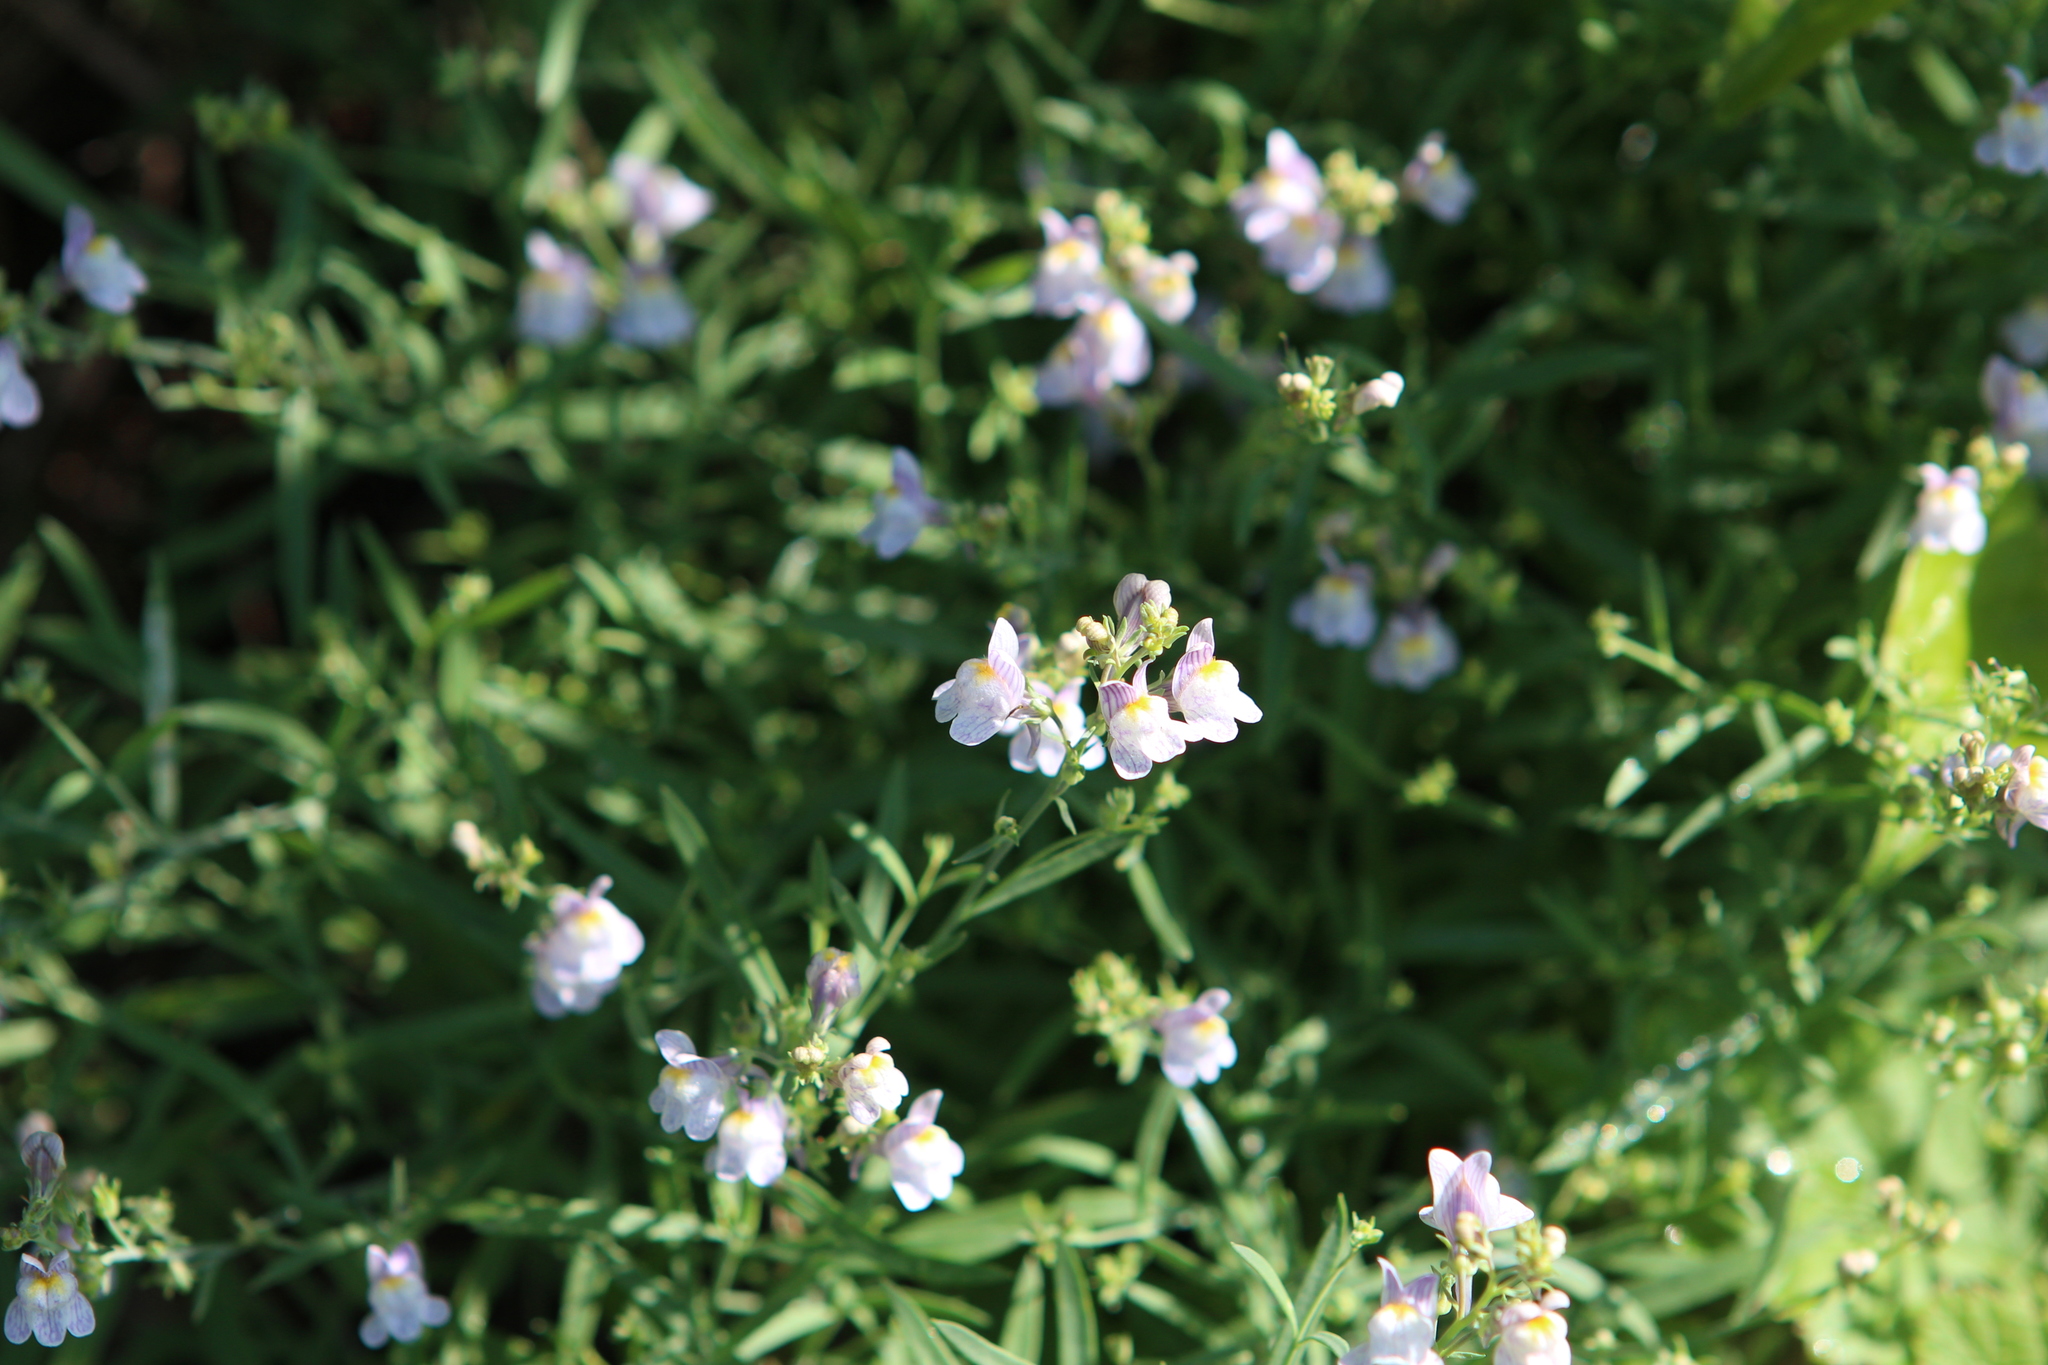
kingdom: Plantae
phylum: Tracheophyta
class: Magnoliopsida
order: Lamiales
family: Plantaginaceae
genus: Linaria
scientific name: Linaria repens
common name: Pale toadflax
